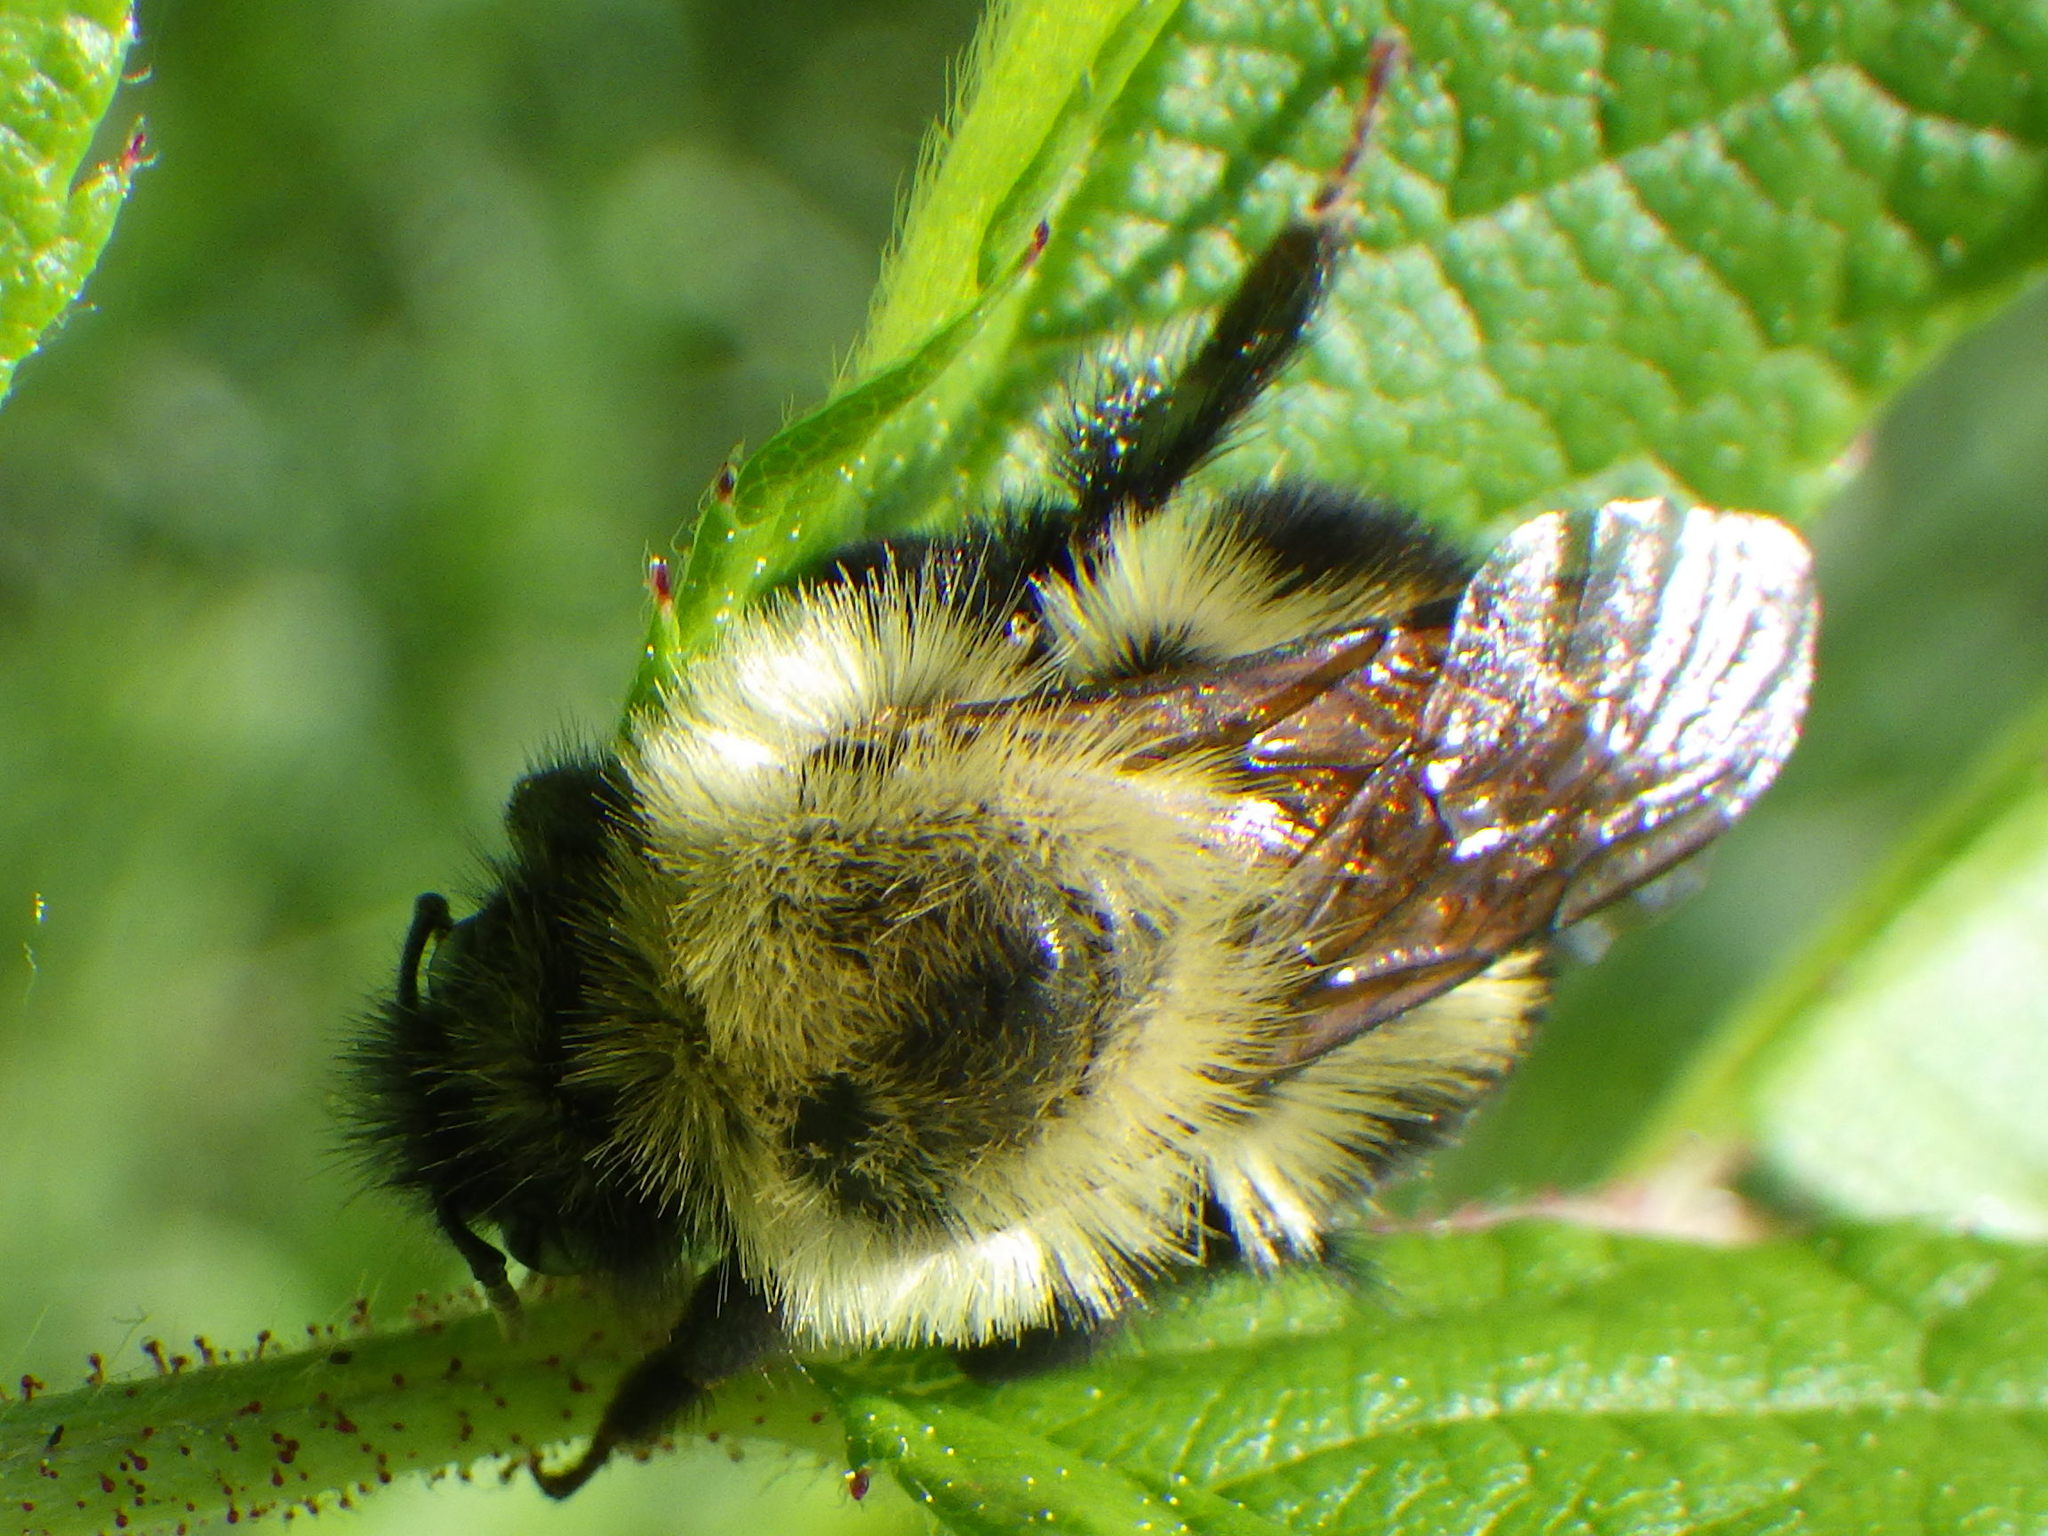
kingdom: Animalia
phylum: Arthropoda
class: Insecta
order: Hymenoptera
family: Apidae
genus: Bombus
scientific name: Bombus bimaculatus
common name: Two-spotted bumble bee
